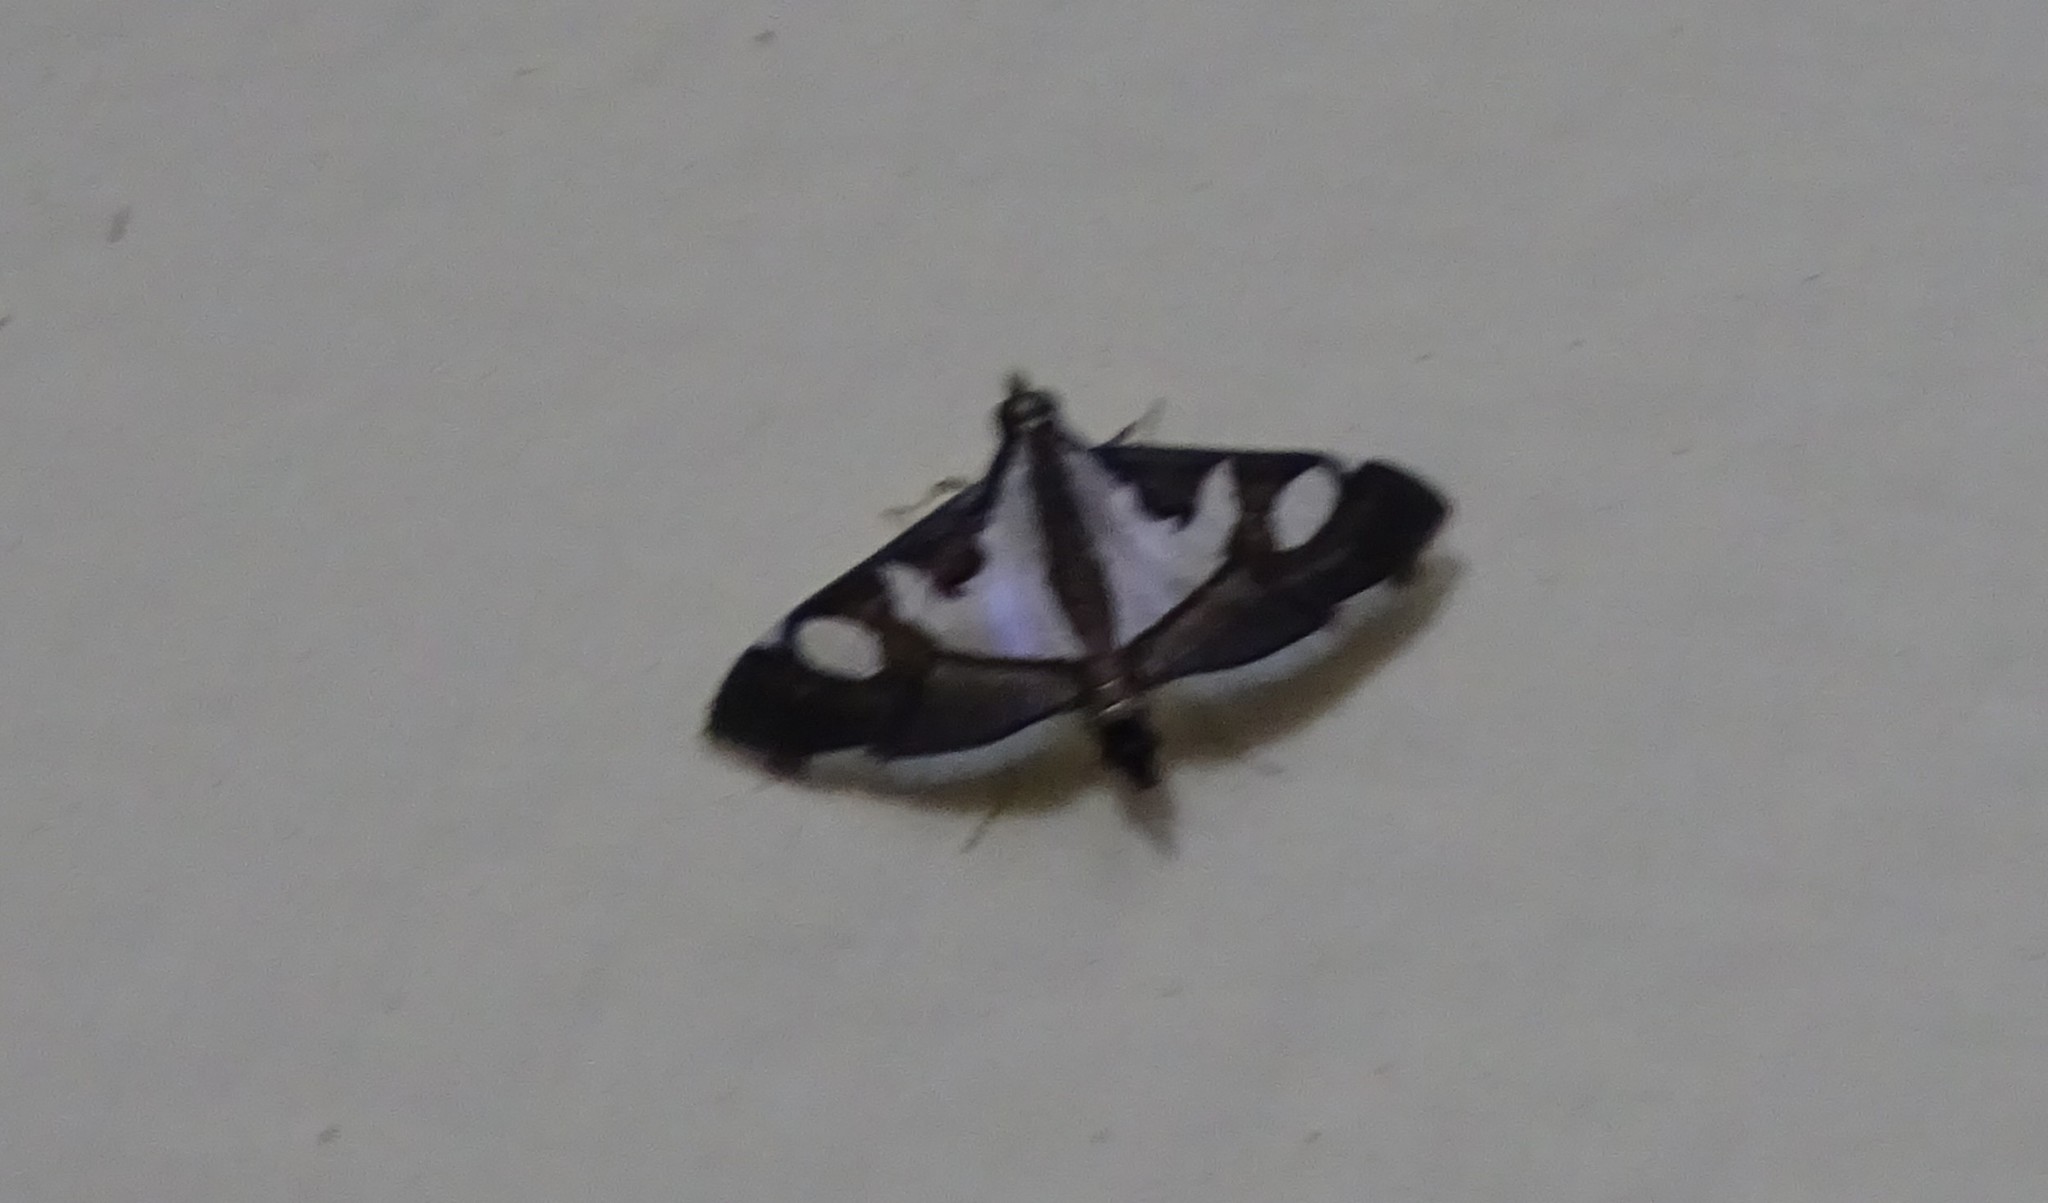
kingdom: Animalia
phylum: Arthropoda
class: Insecta
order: Lepidoptera
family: Crambidae
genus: Glyphodes
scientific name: Glyphodes bicolor
